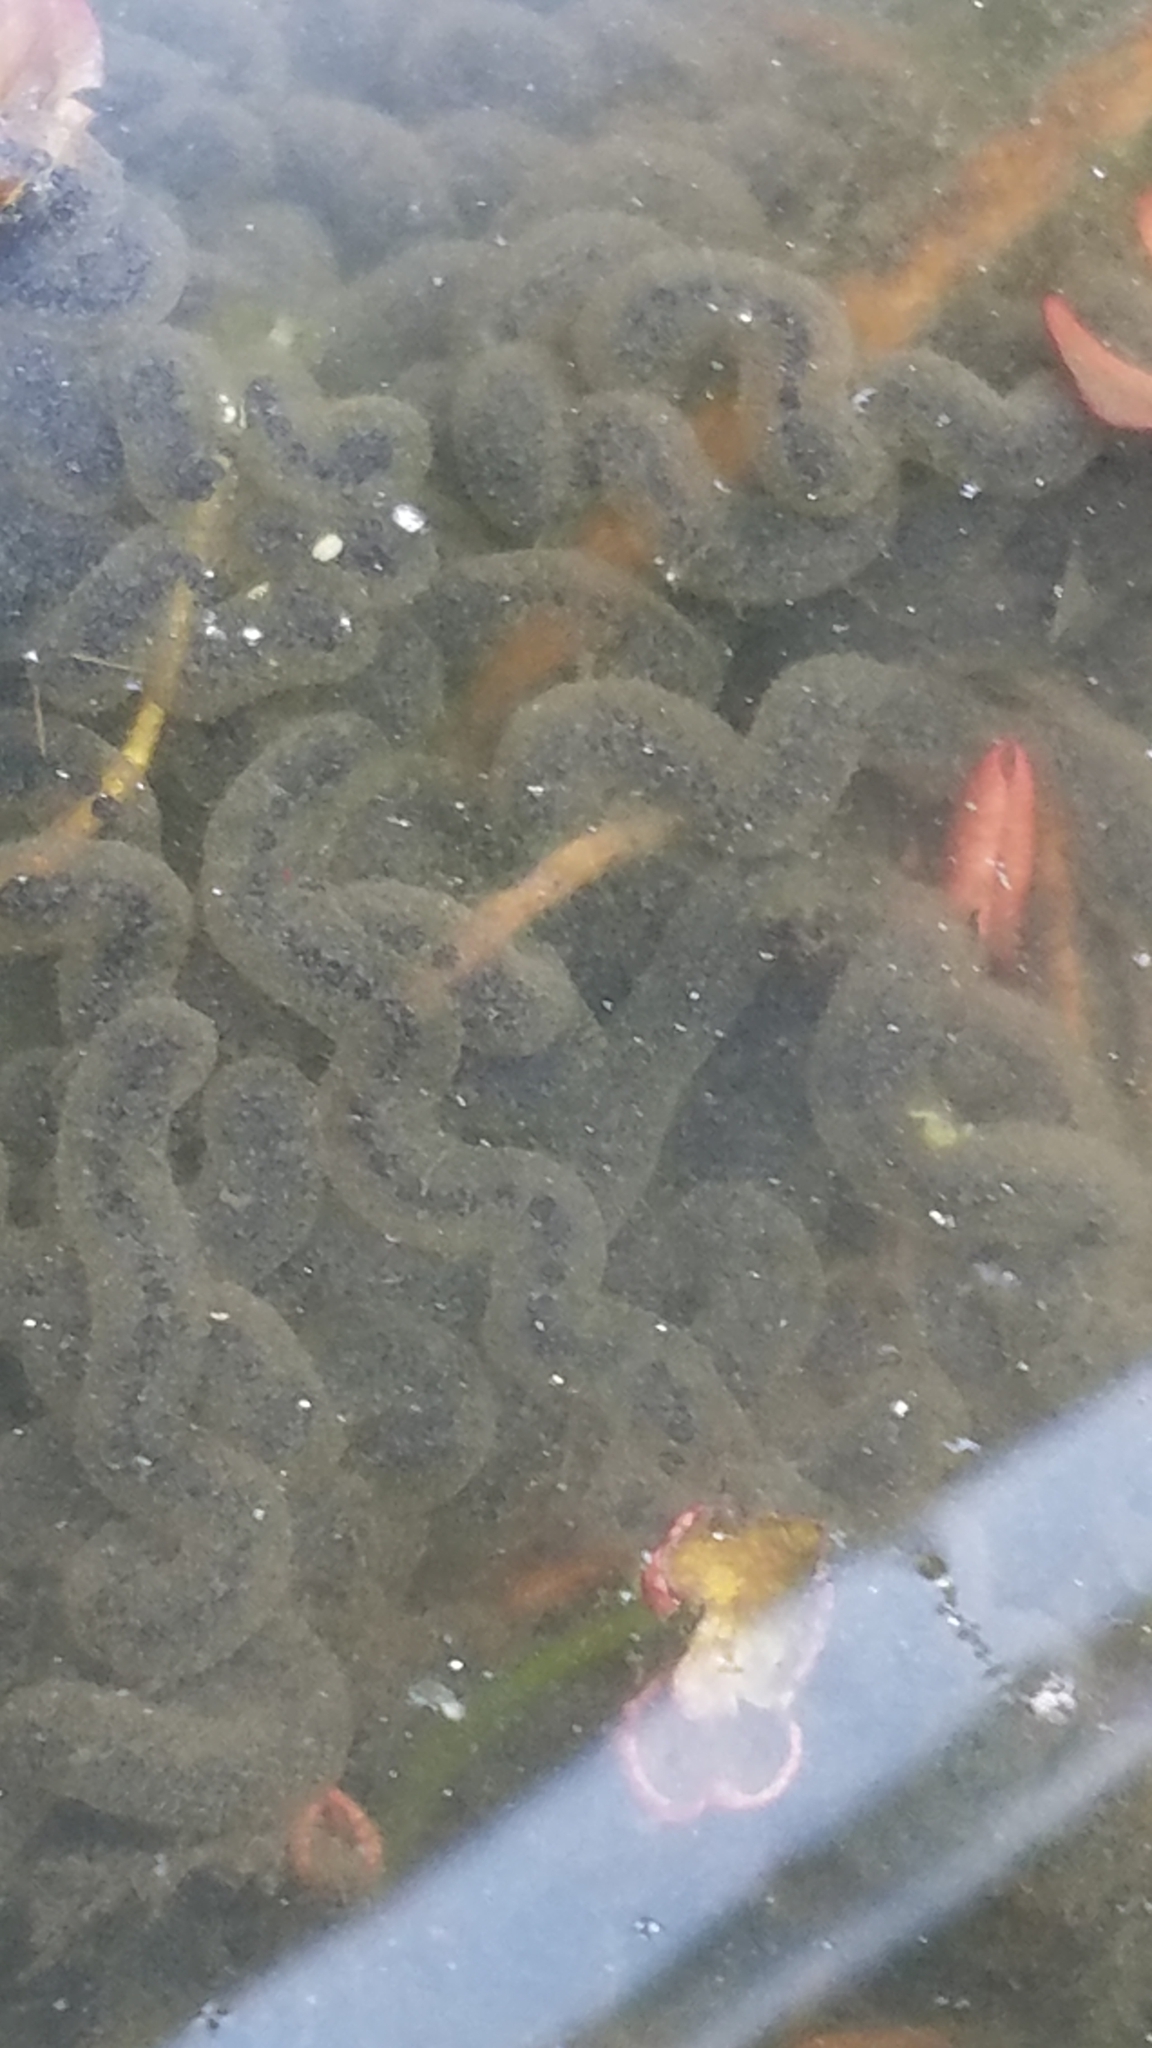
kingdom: Animalia
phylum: Chordata
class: Amphibia
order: Anura
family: Bufonidae
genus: Anaxyrus
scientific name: Anaxyrus americanus
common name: American toad
